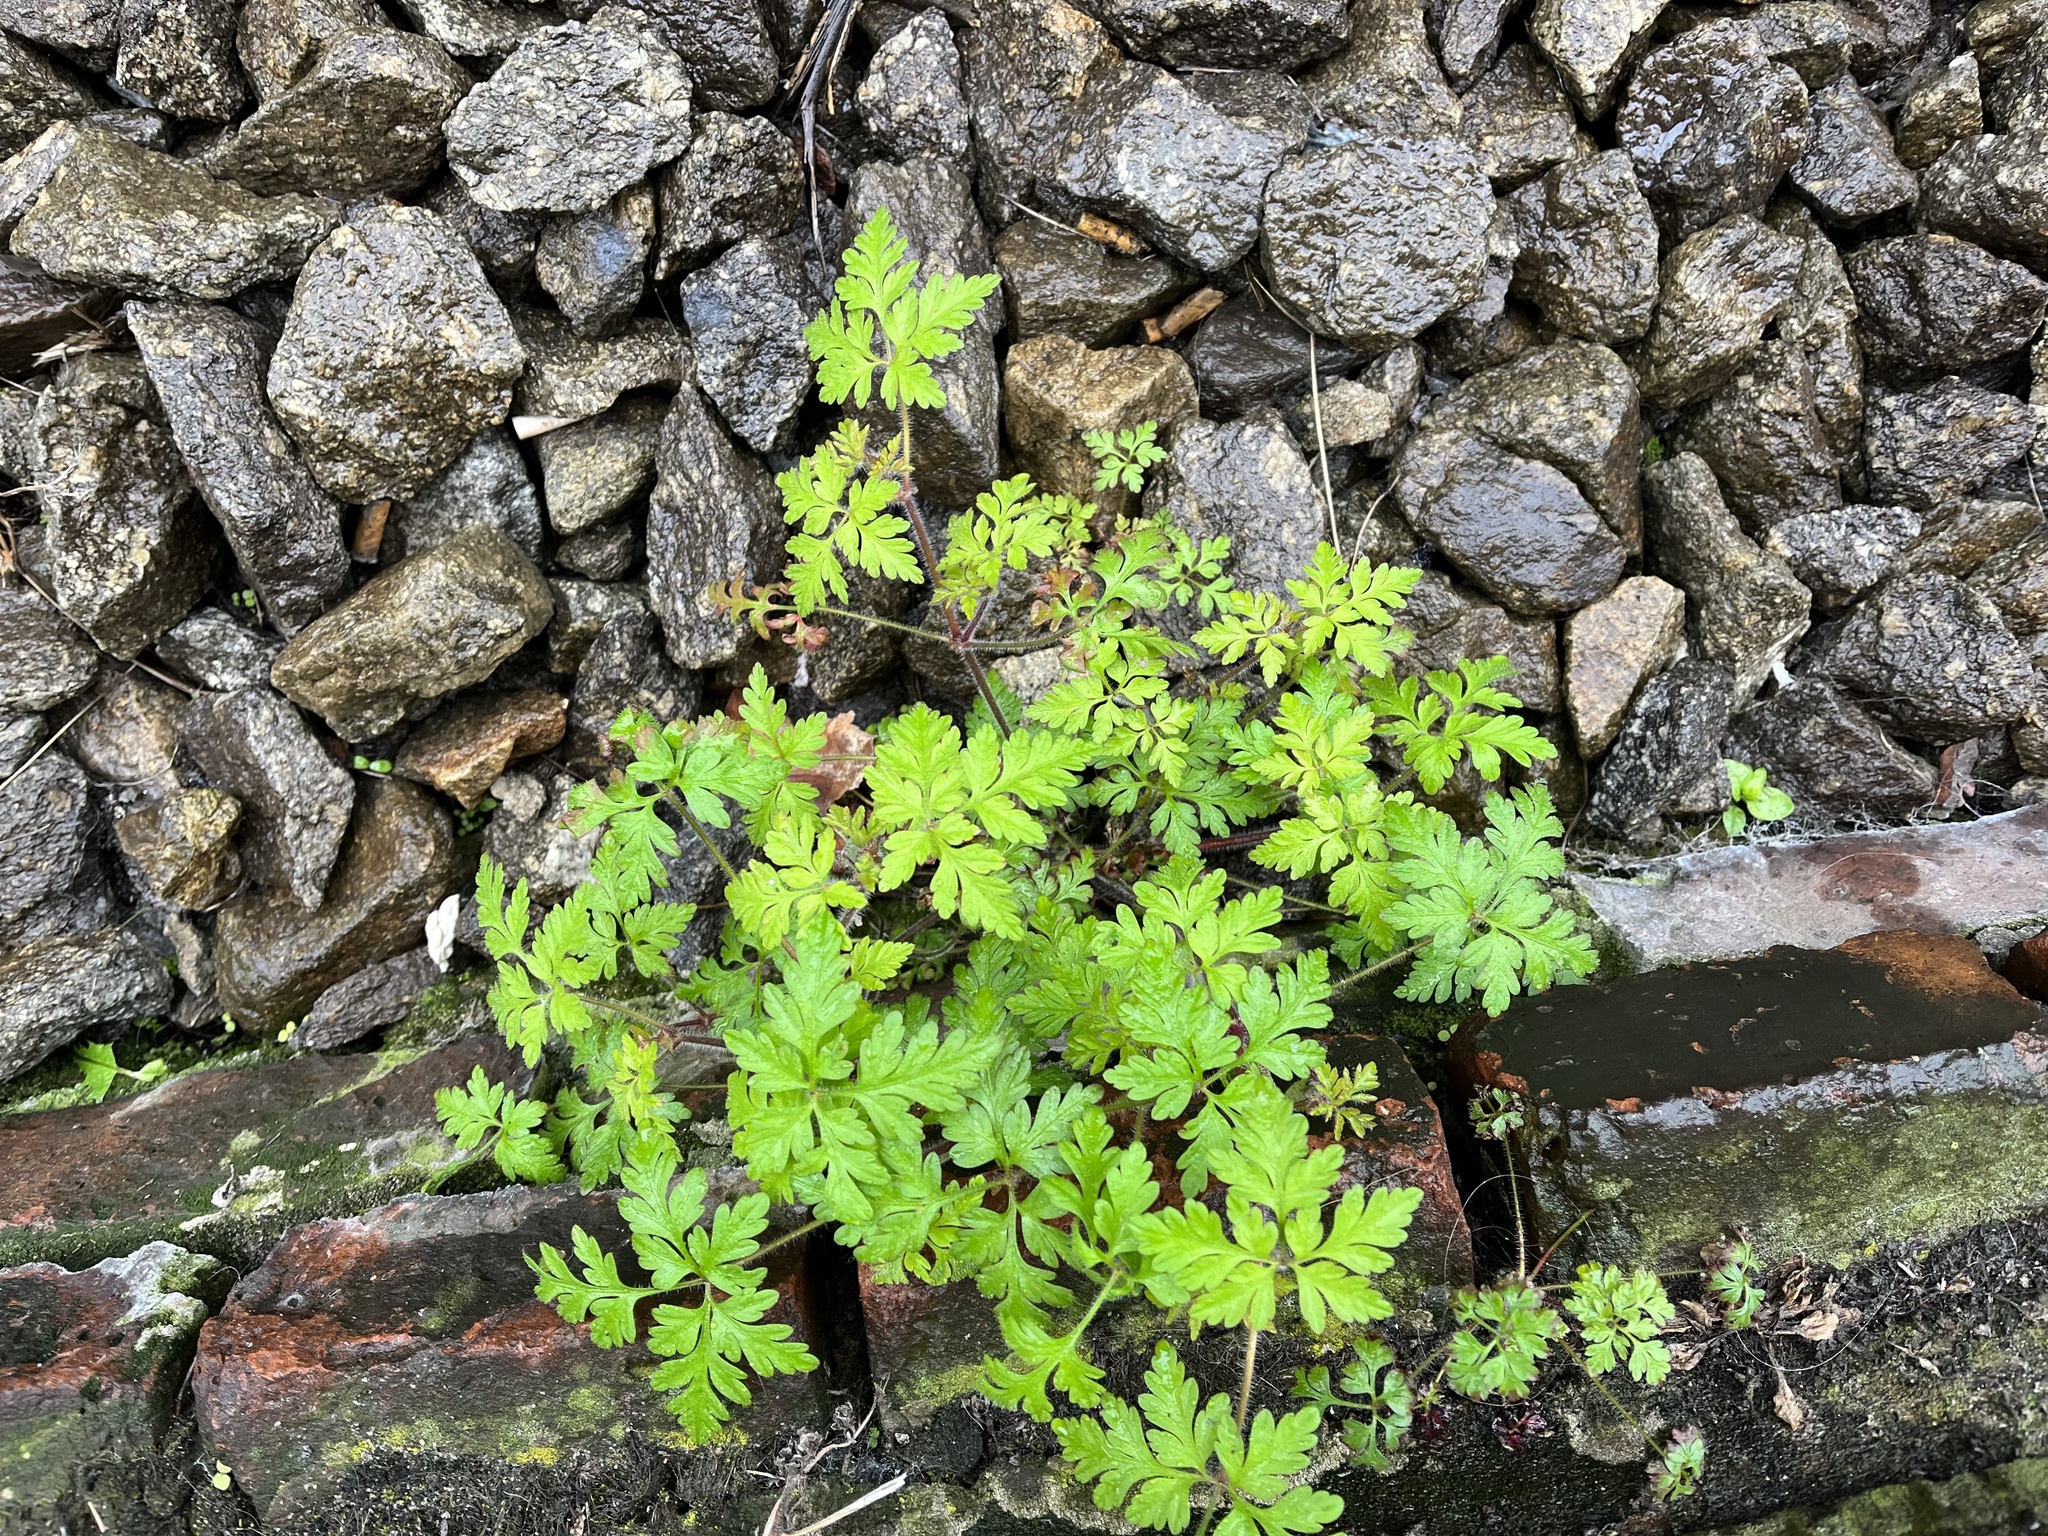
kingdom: Plantae
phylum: Tracheophyta
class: Magnoliopsida
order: Geraniales
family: Geraniaceae
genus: Geranium
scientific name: Geranium robertianum
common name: Herb-robert
